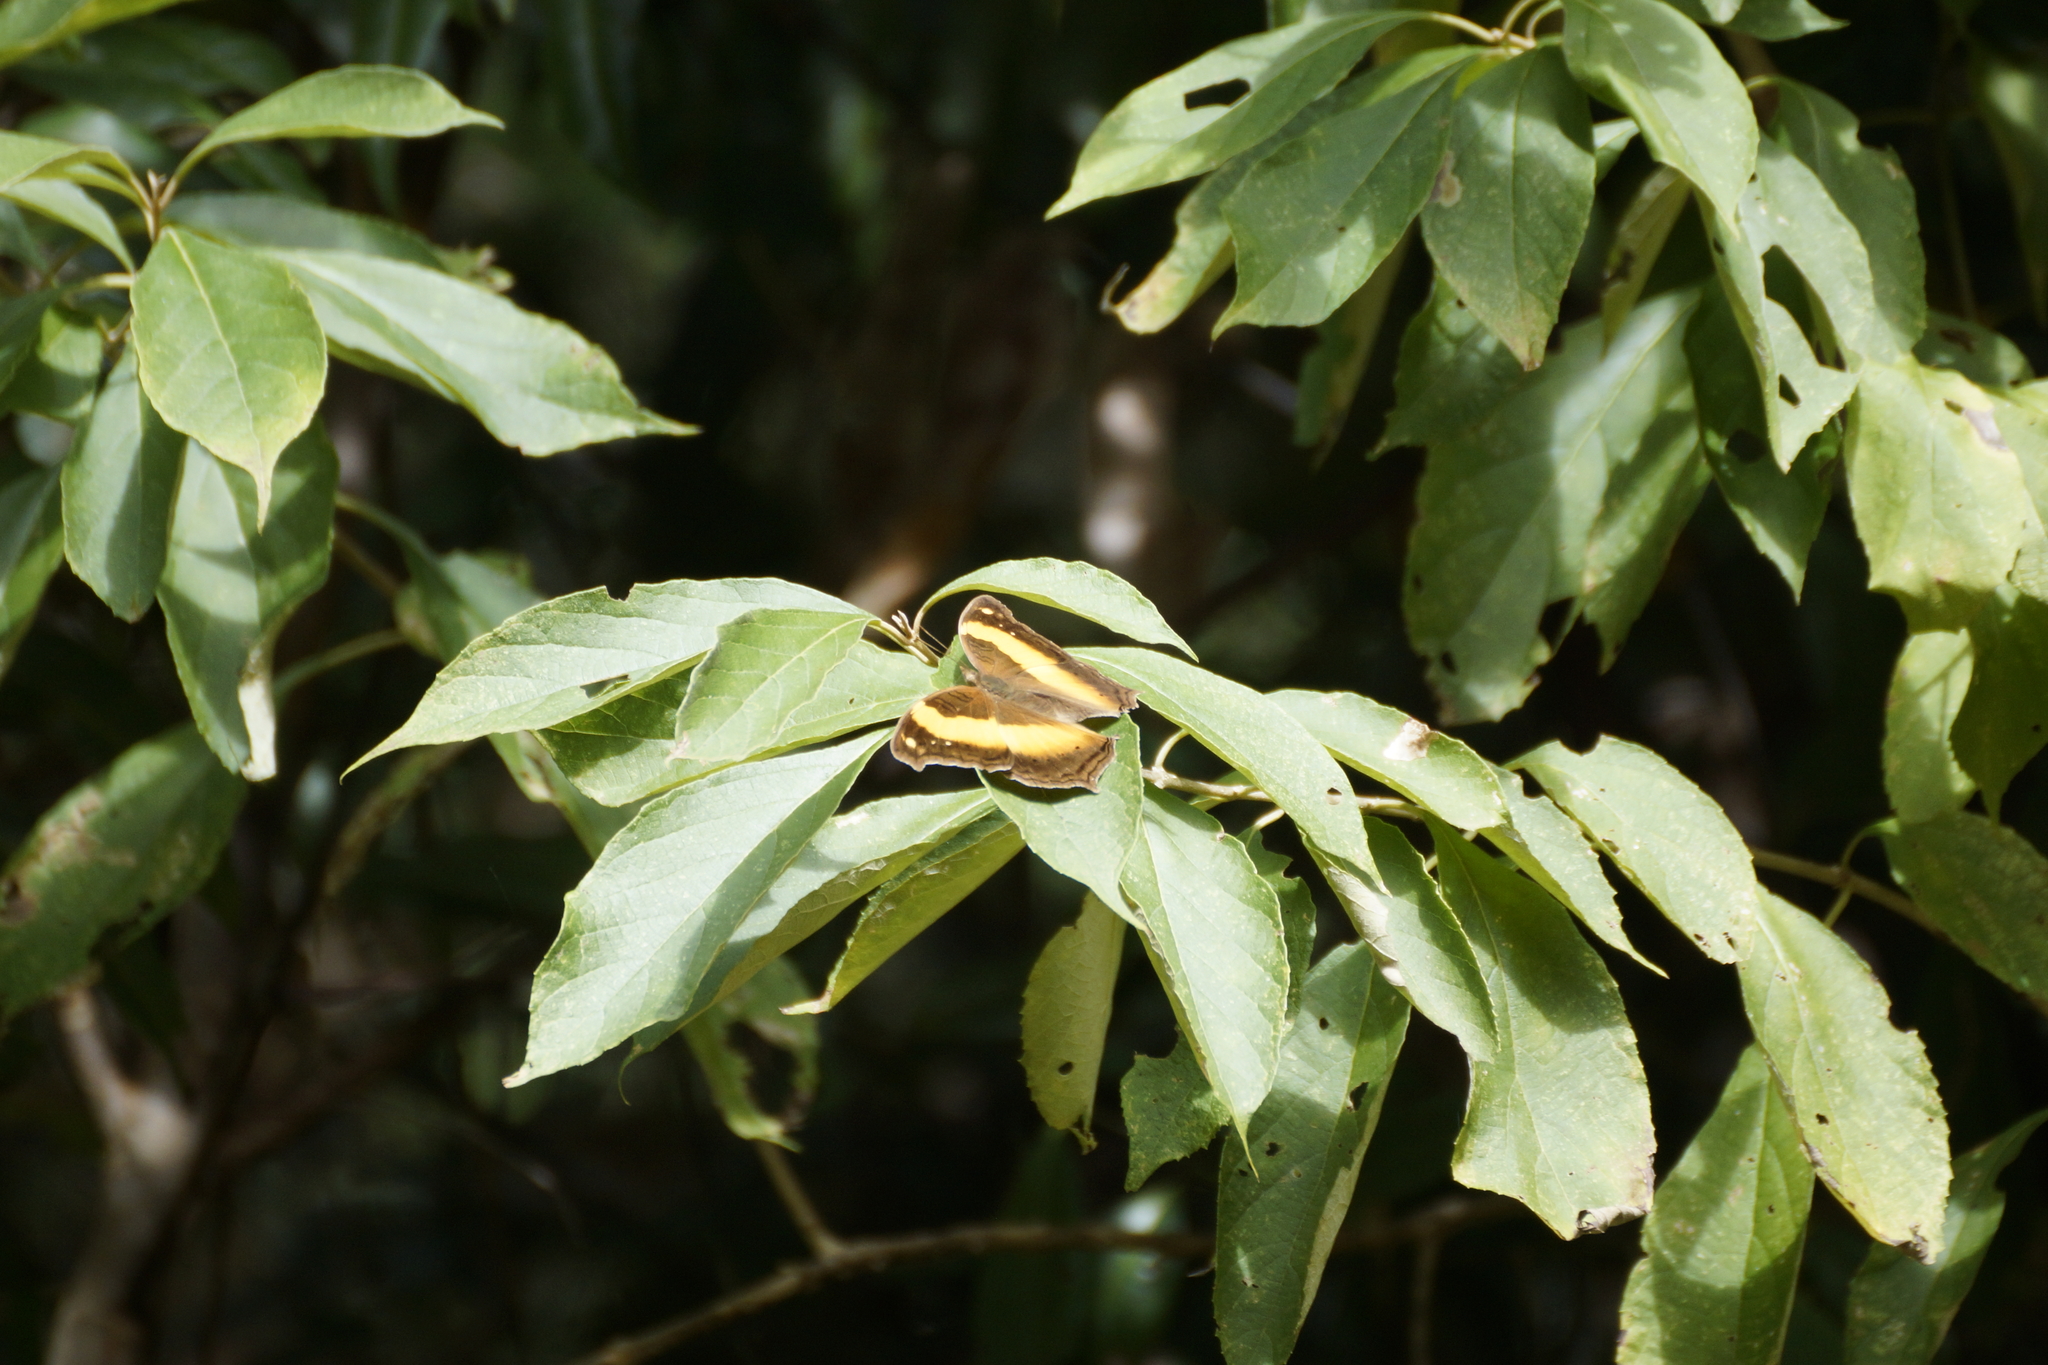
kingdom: Animalia
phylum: Arthropoda
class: Insecta
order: Lepidoptera
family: Nymphalidae
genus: Yoma
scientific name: Yoma sabina
